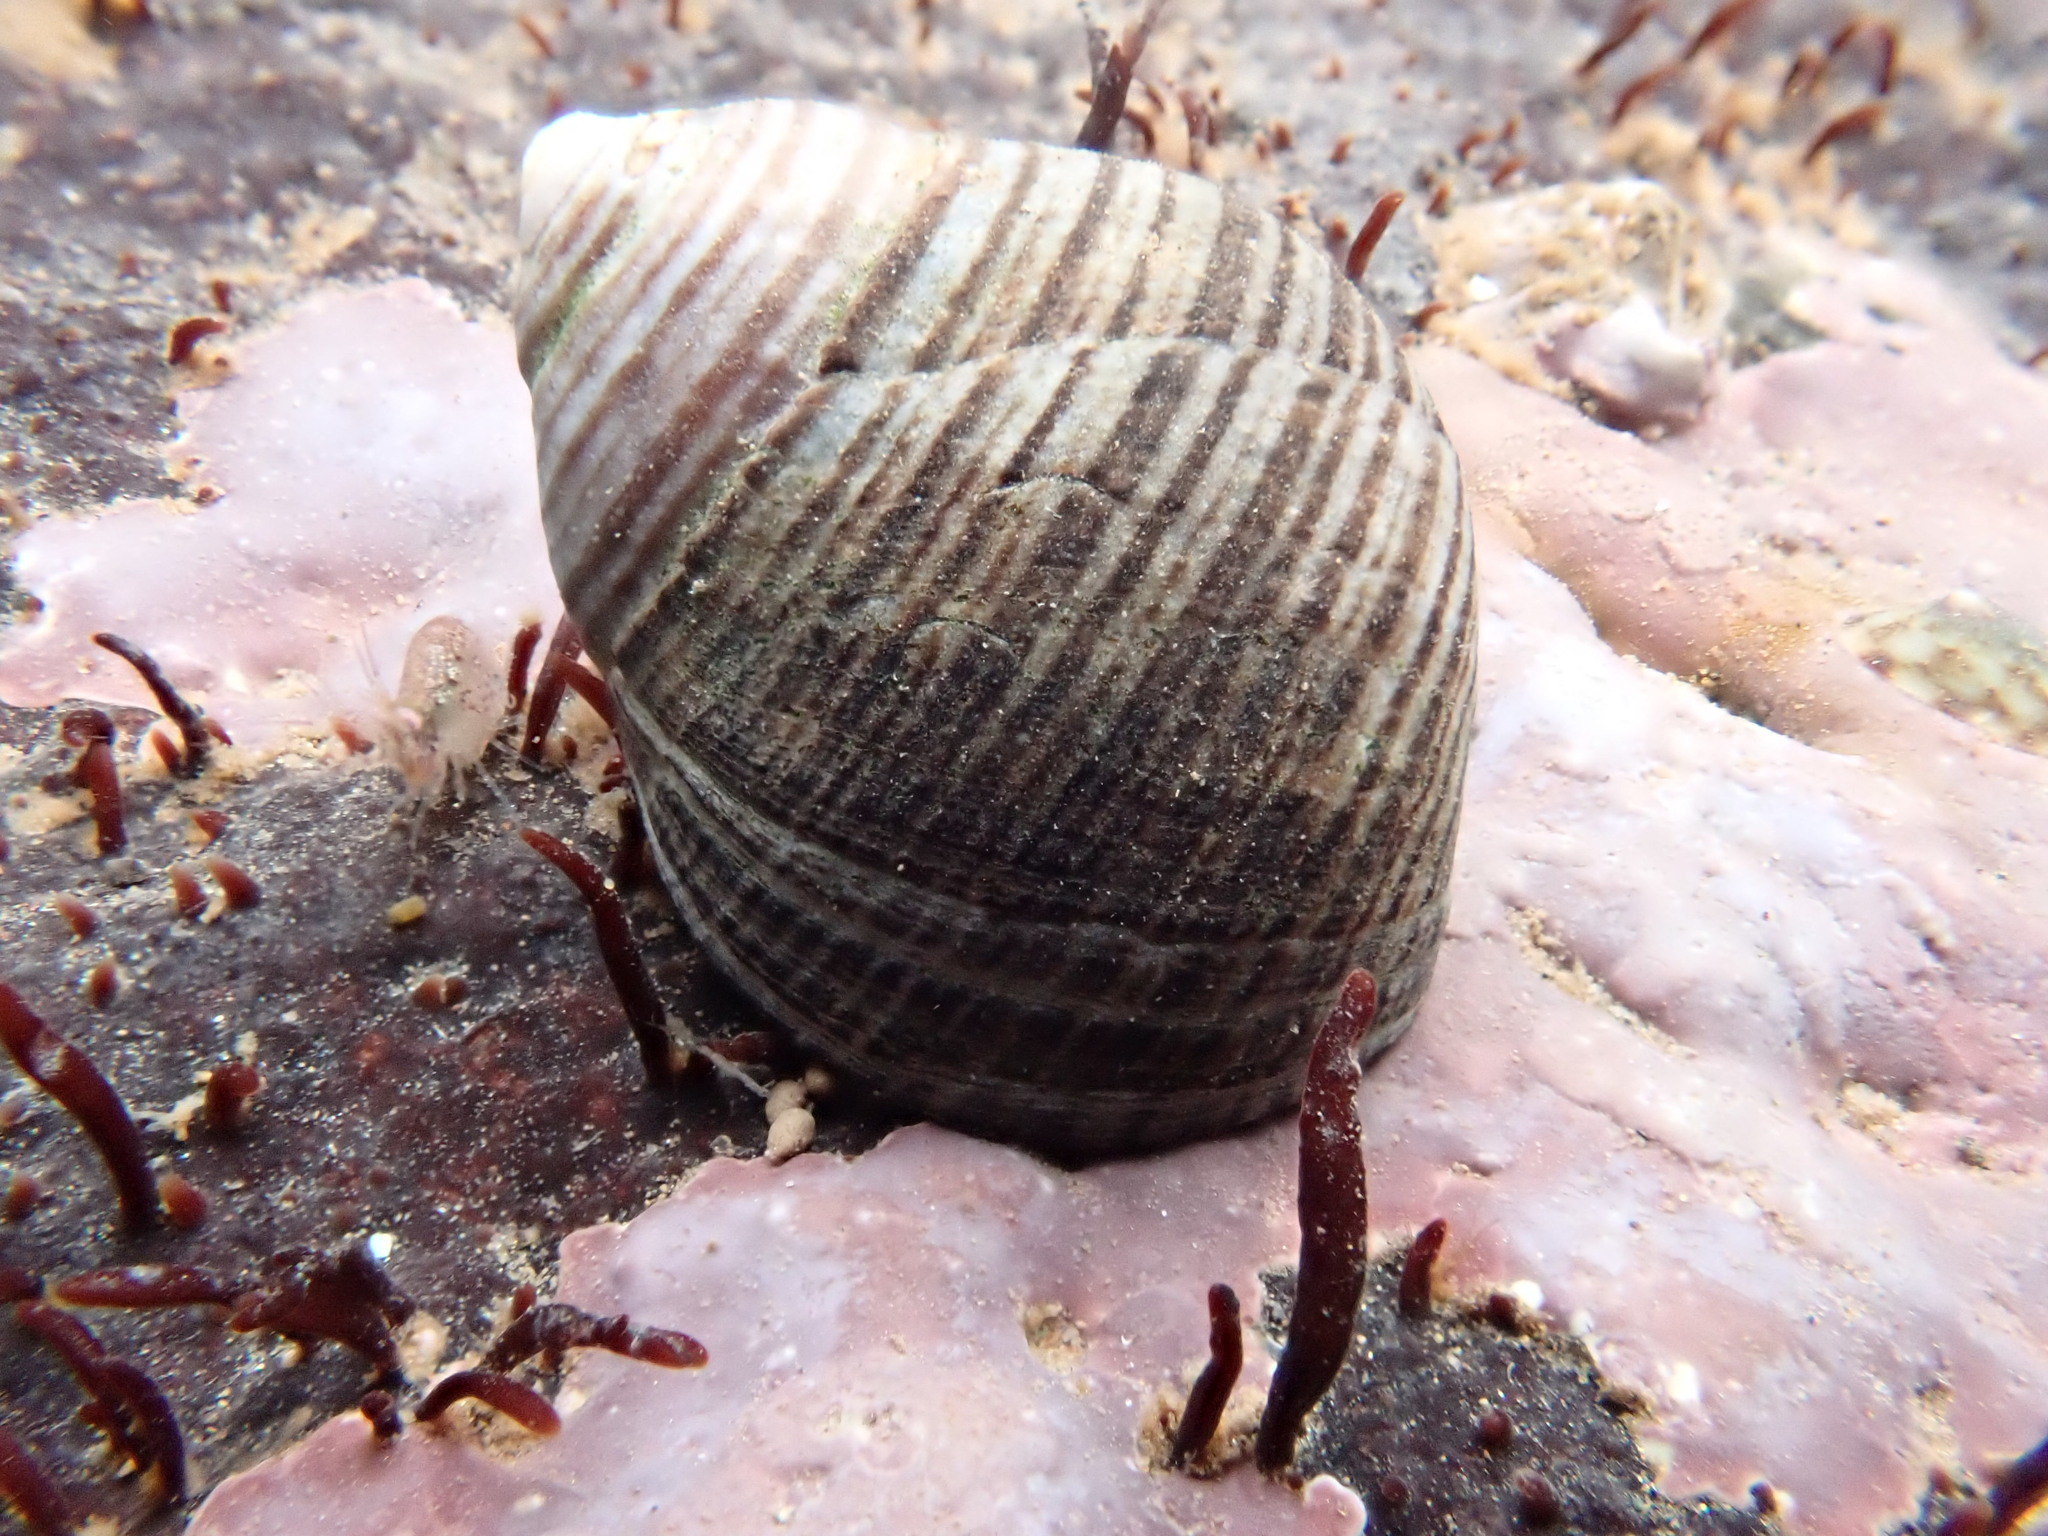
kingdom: Animalia
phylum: Mollusca
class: Gastropoda
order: Littorinimorpha
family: Littorinidae
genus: Littorina
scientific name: Littorina littorea
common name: Common periwinkle
